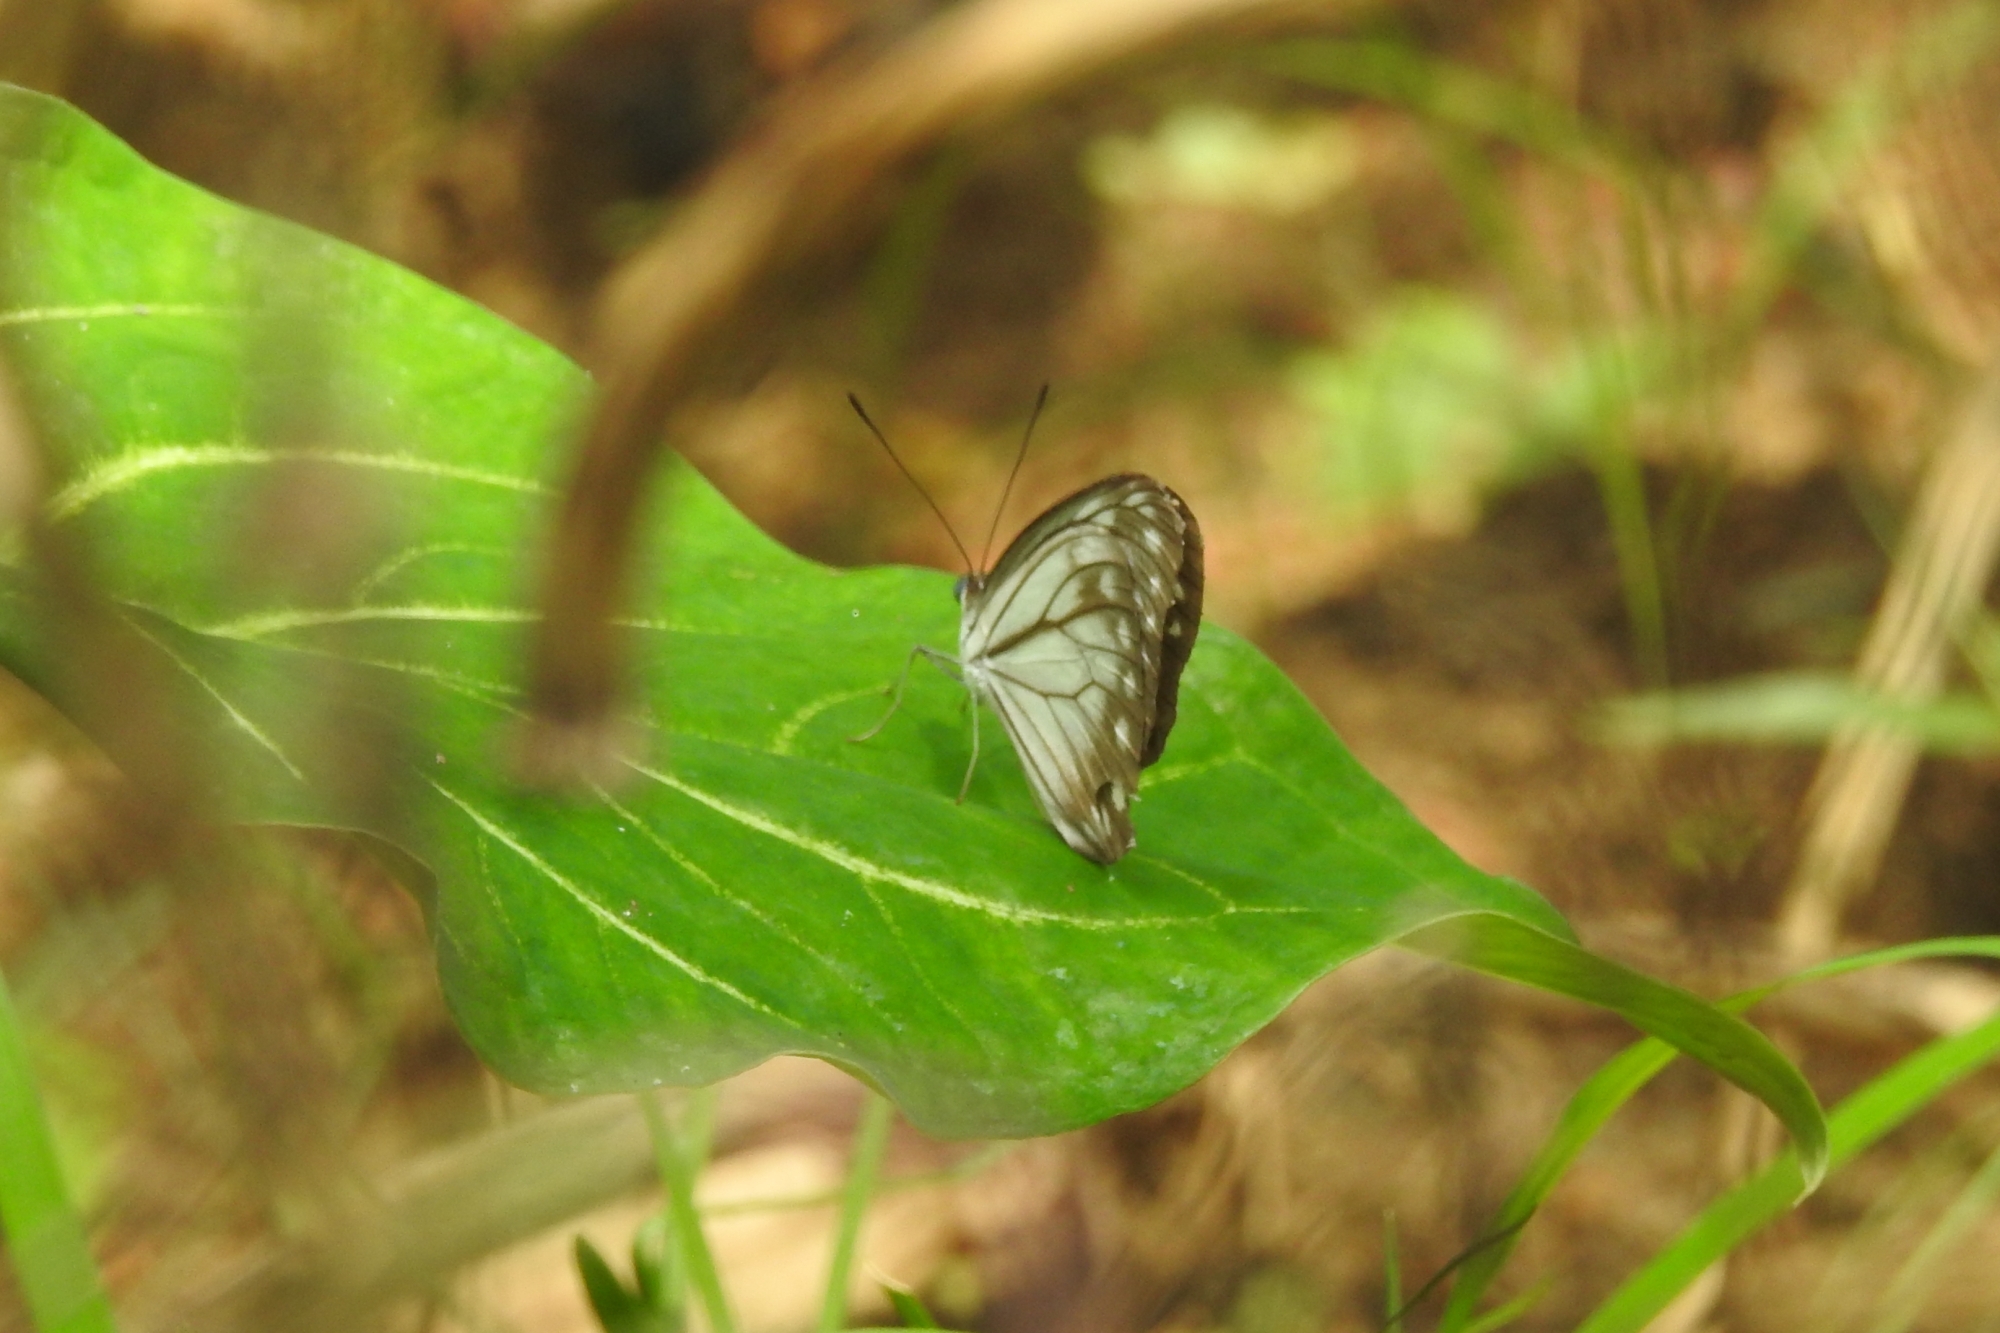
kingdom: Animalia
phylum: Arthropoda
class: Insecta
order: Lepidoptera
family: Pieridae
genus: Pareronia
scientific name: Pareronia hippia
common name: Indian wanderer
